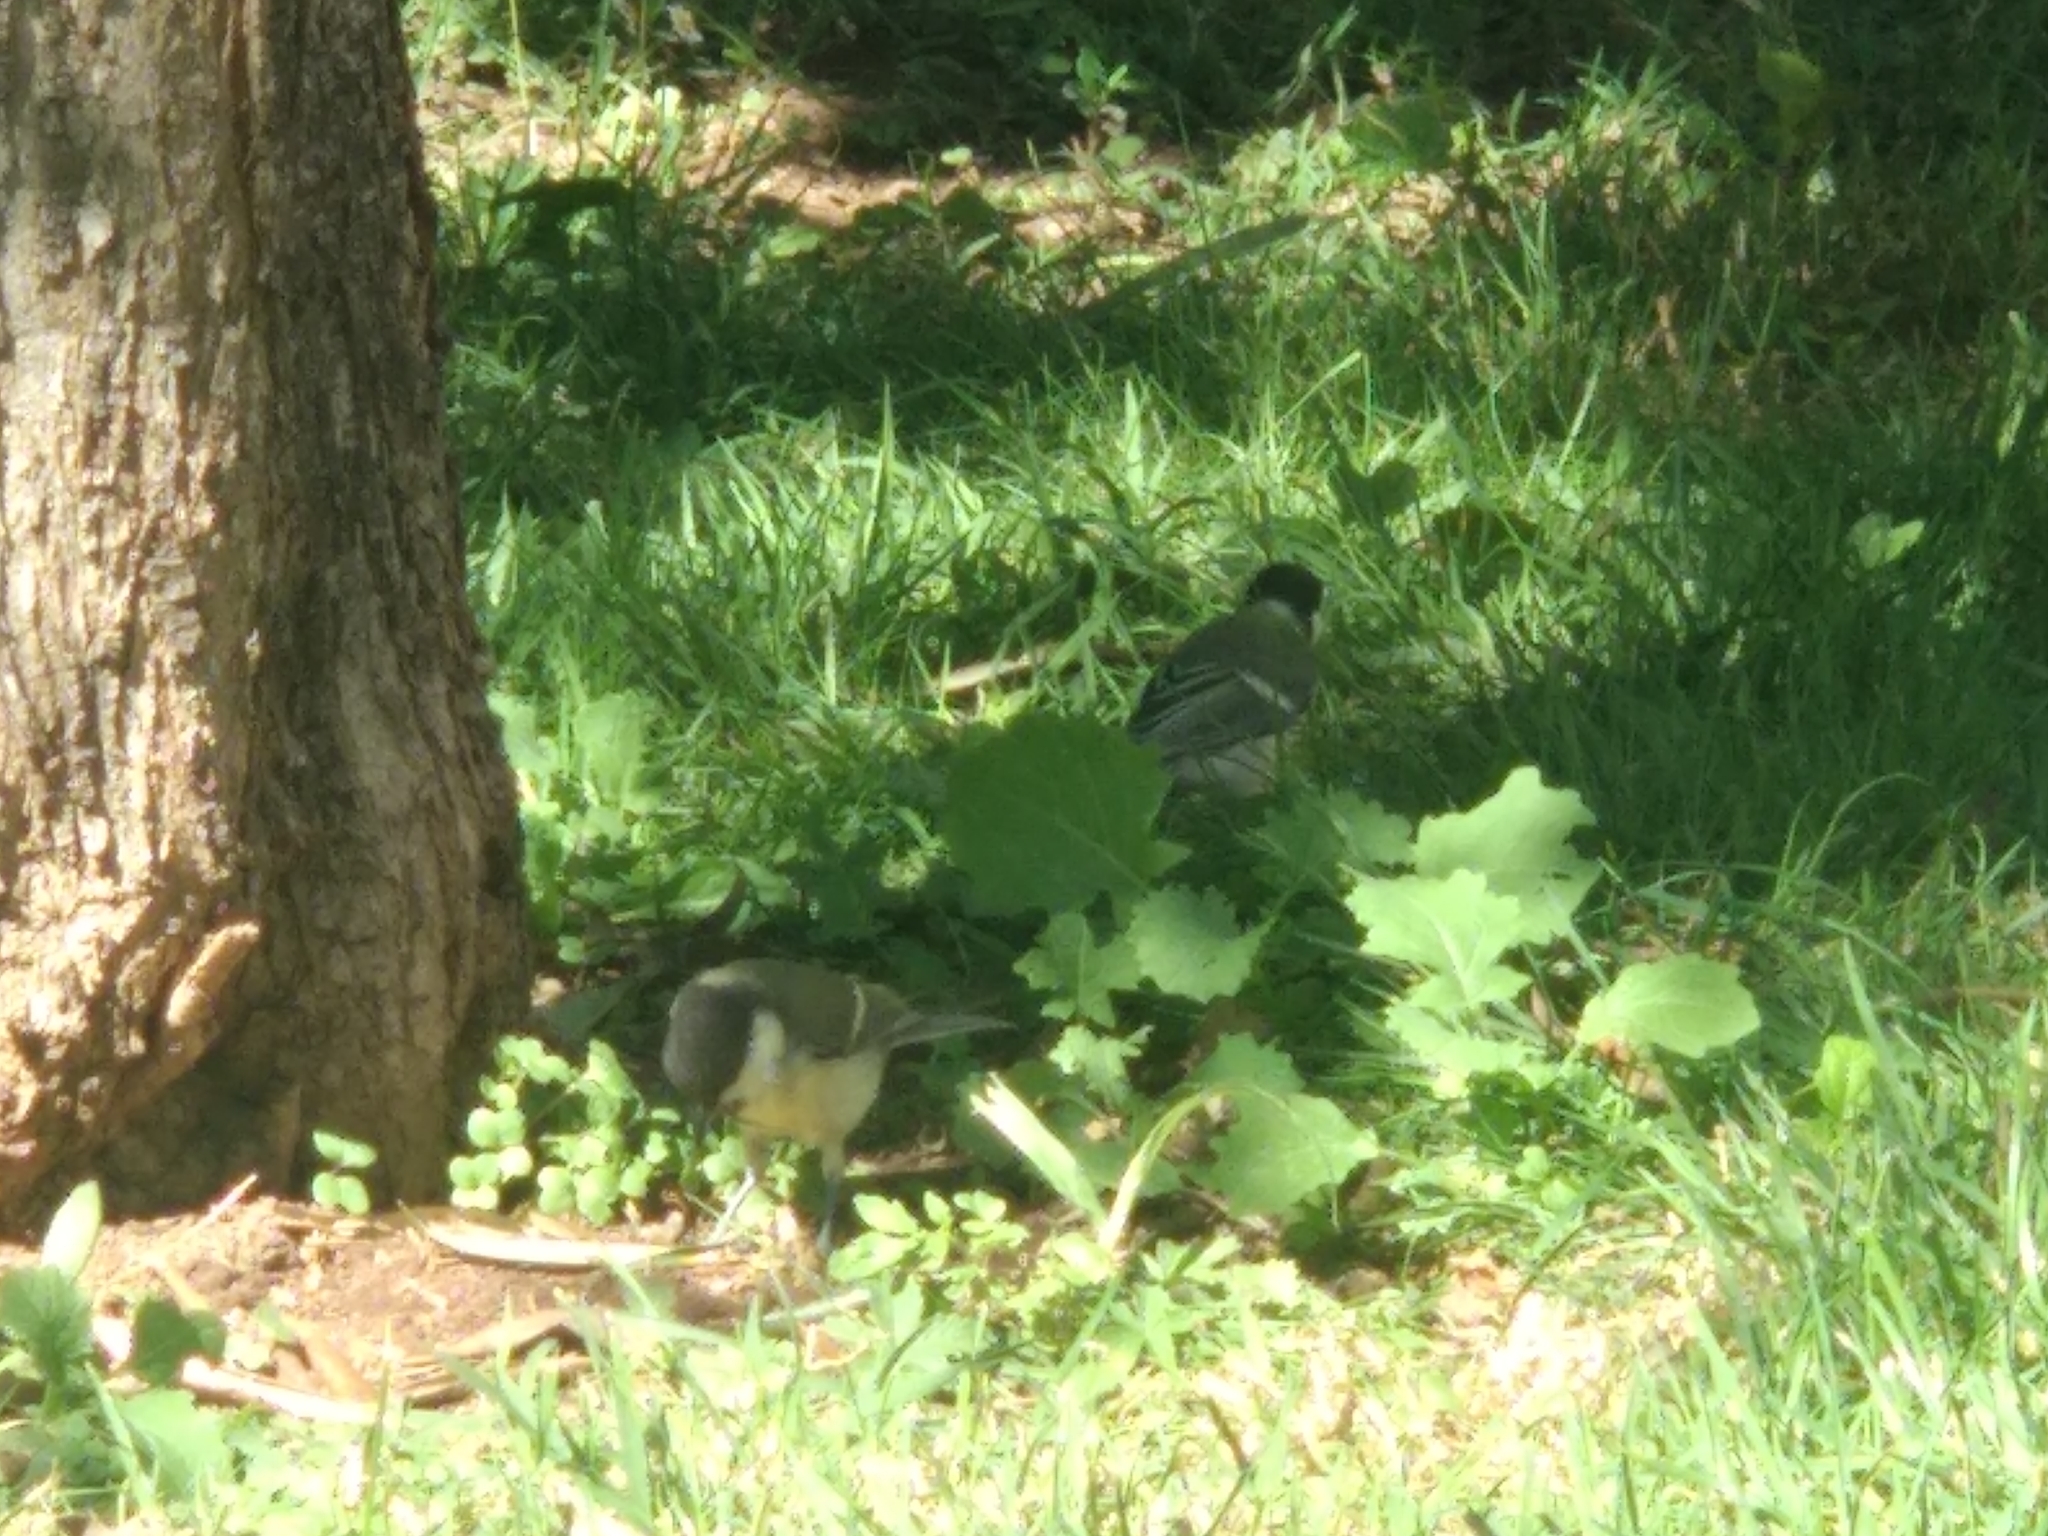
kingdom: Animalia
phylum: Chordata
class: Aves
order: Passeriformes
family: Paridae
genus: Parus
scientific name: Parus major
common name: Great tit
